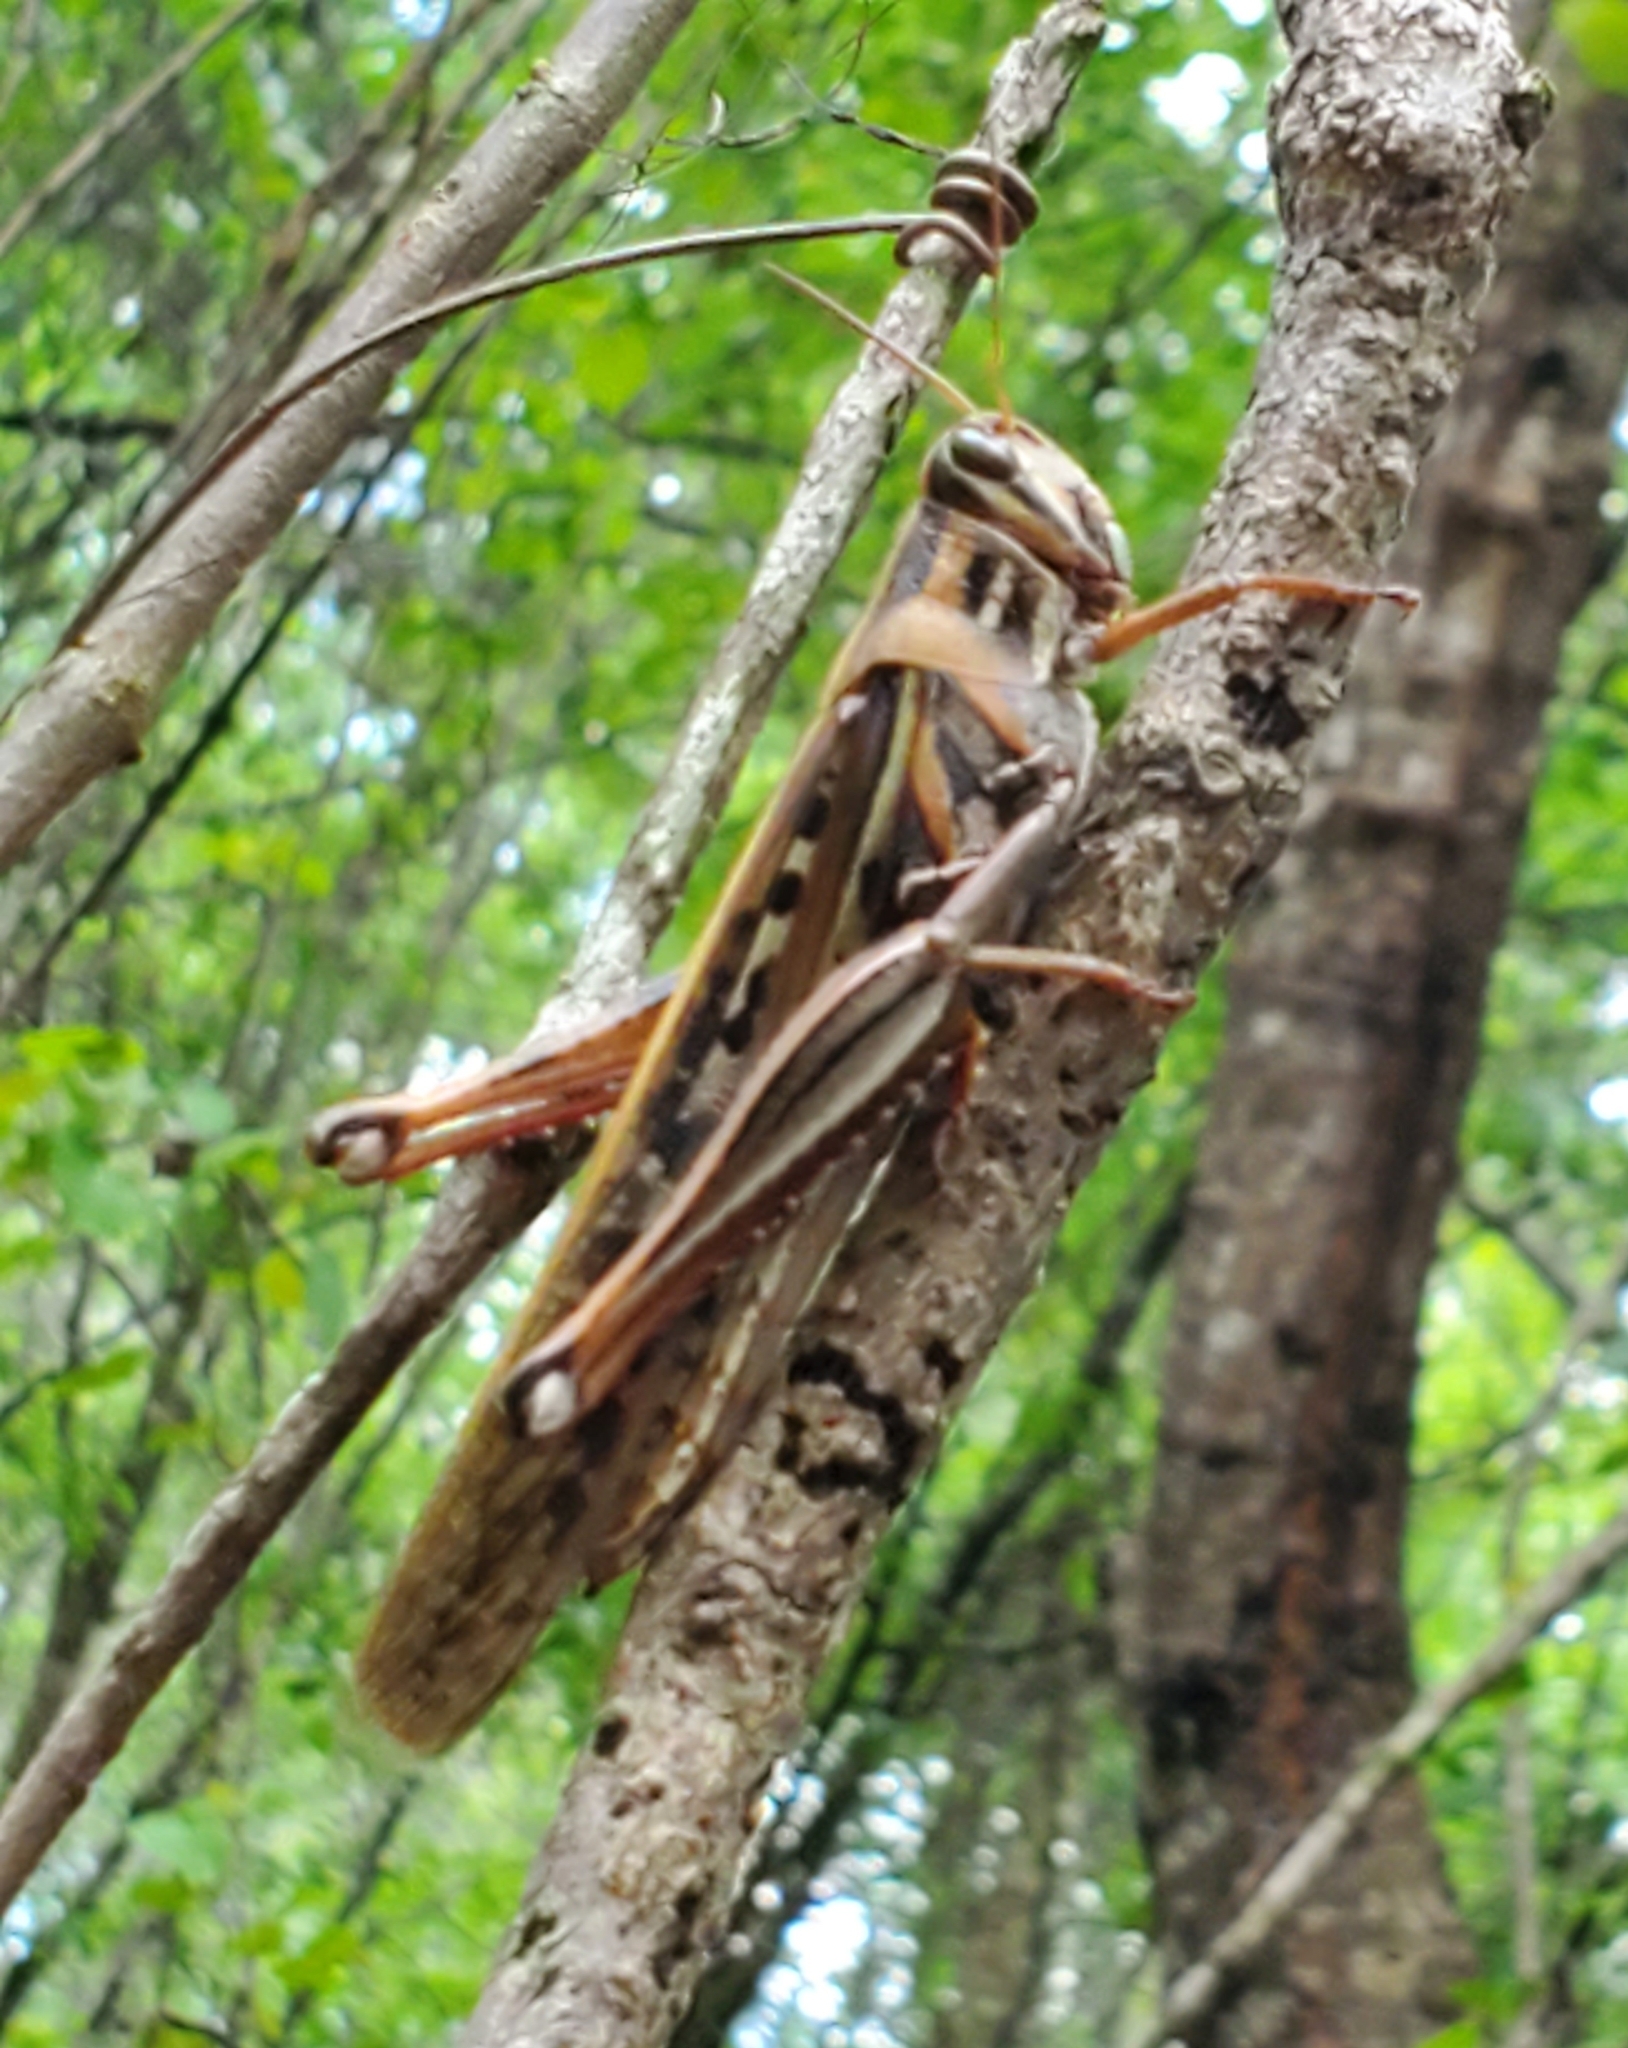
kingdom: Animalia
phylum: Arthropoda
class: Insecta
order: Orthoptera
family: Acrididae
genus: Schistocerca
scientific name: Schistocerca americana
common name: American bird locust
